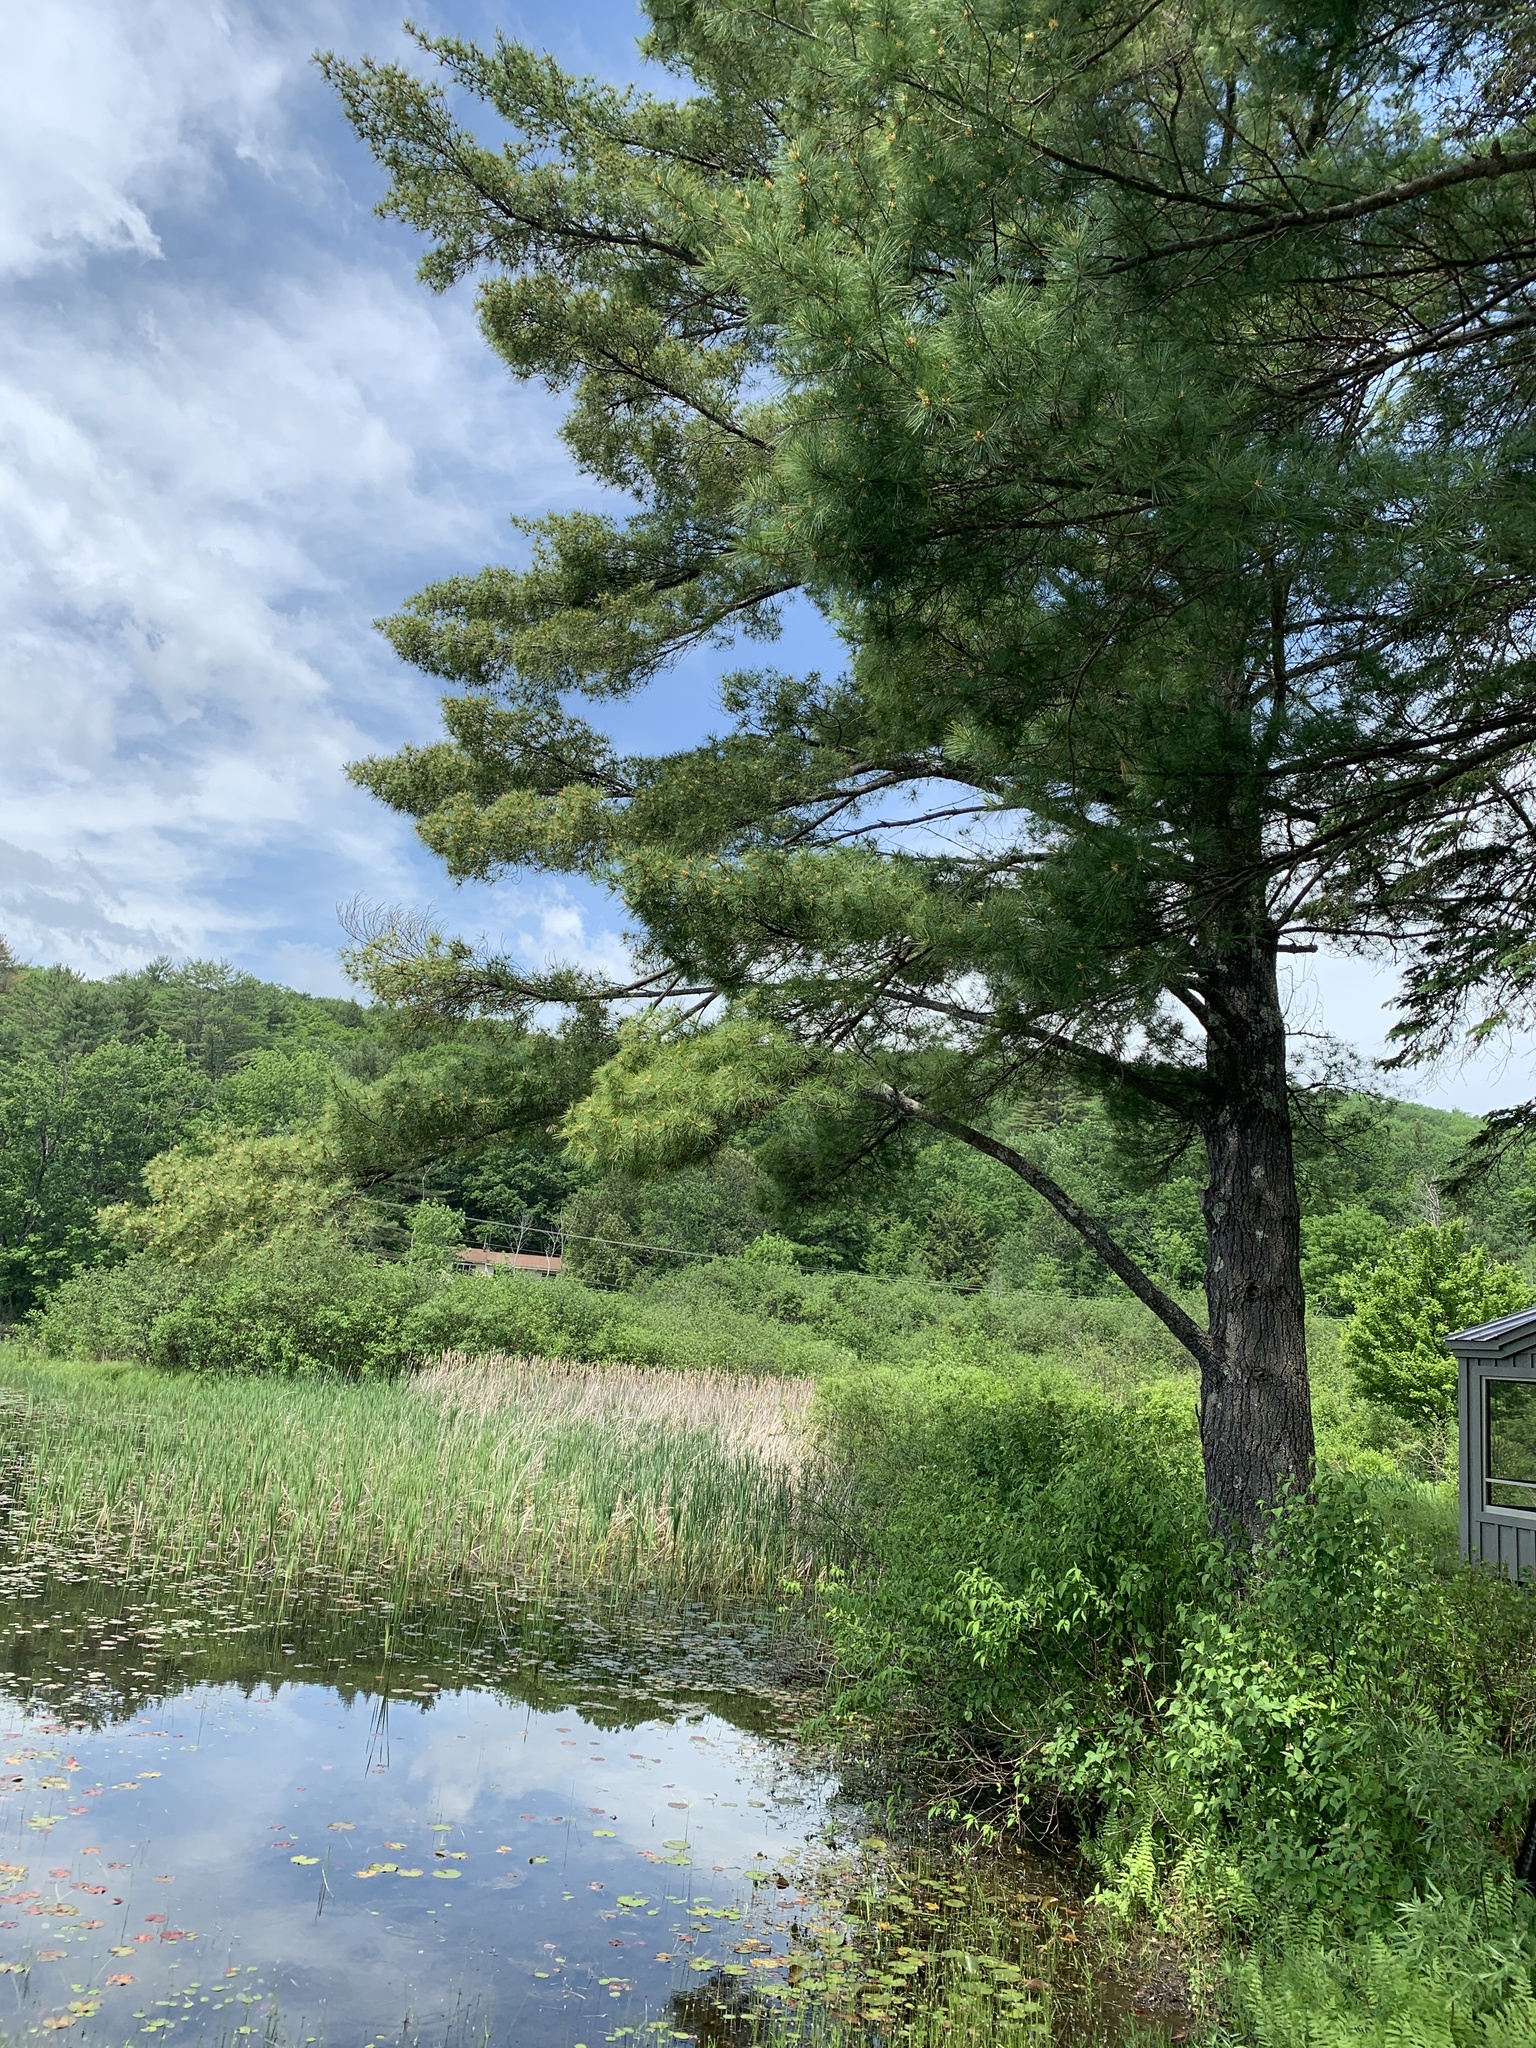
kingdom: Plantae
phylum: Tracheophyta
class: Pinopsida
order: Pinales
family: Pinaceae
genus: Pinus
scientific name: Pinus strobus
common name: Weymouth pine
